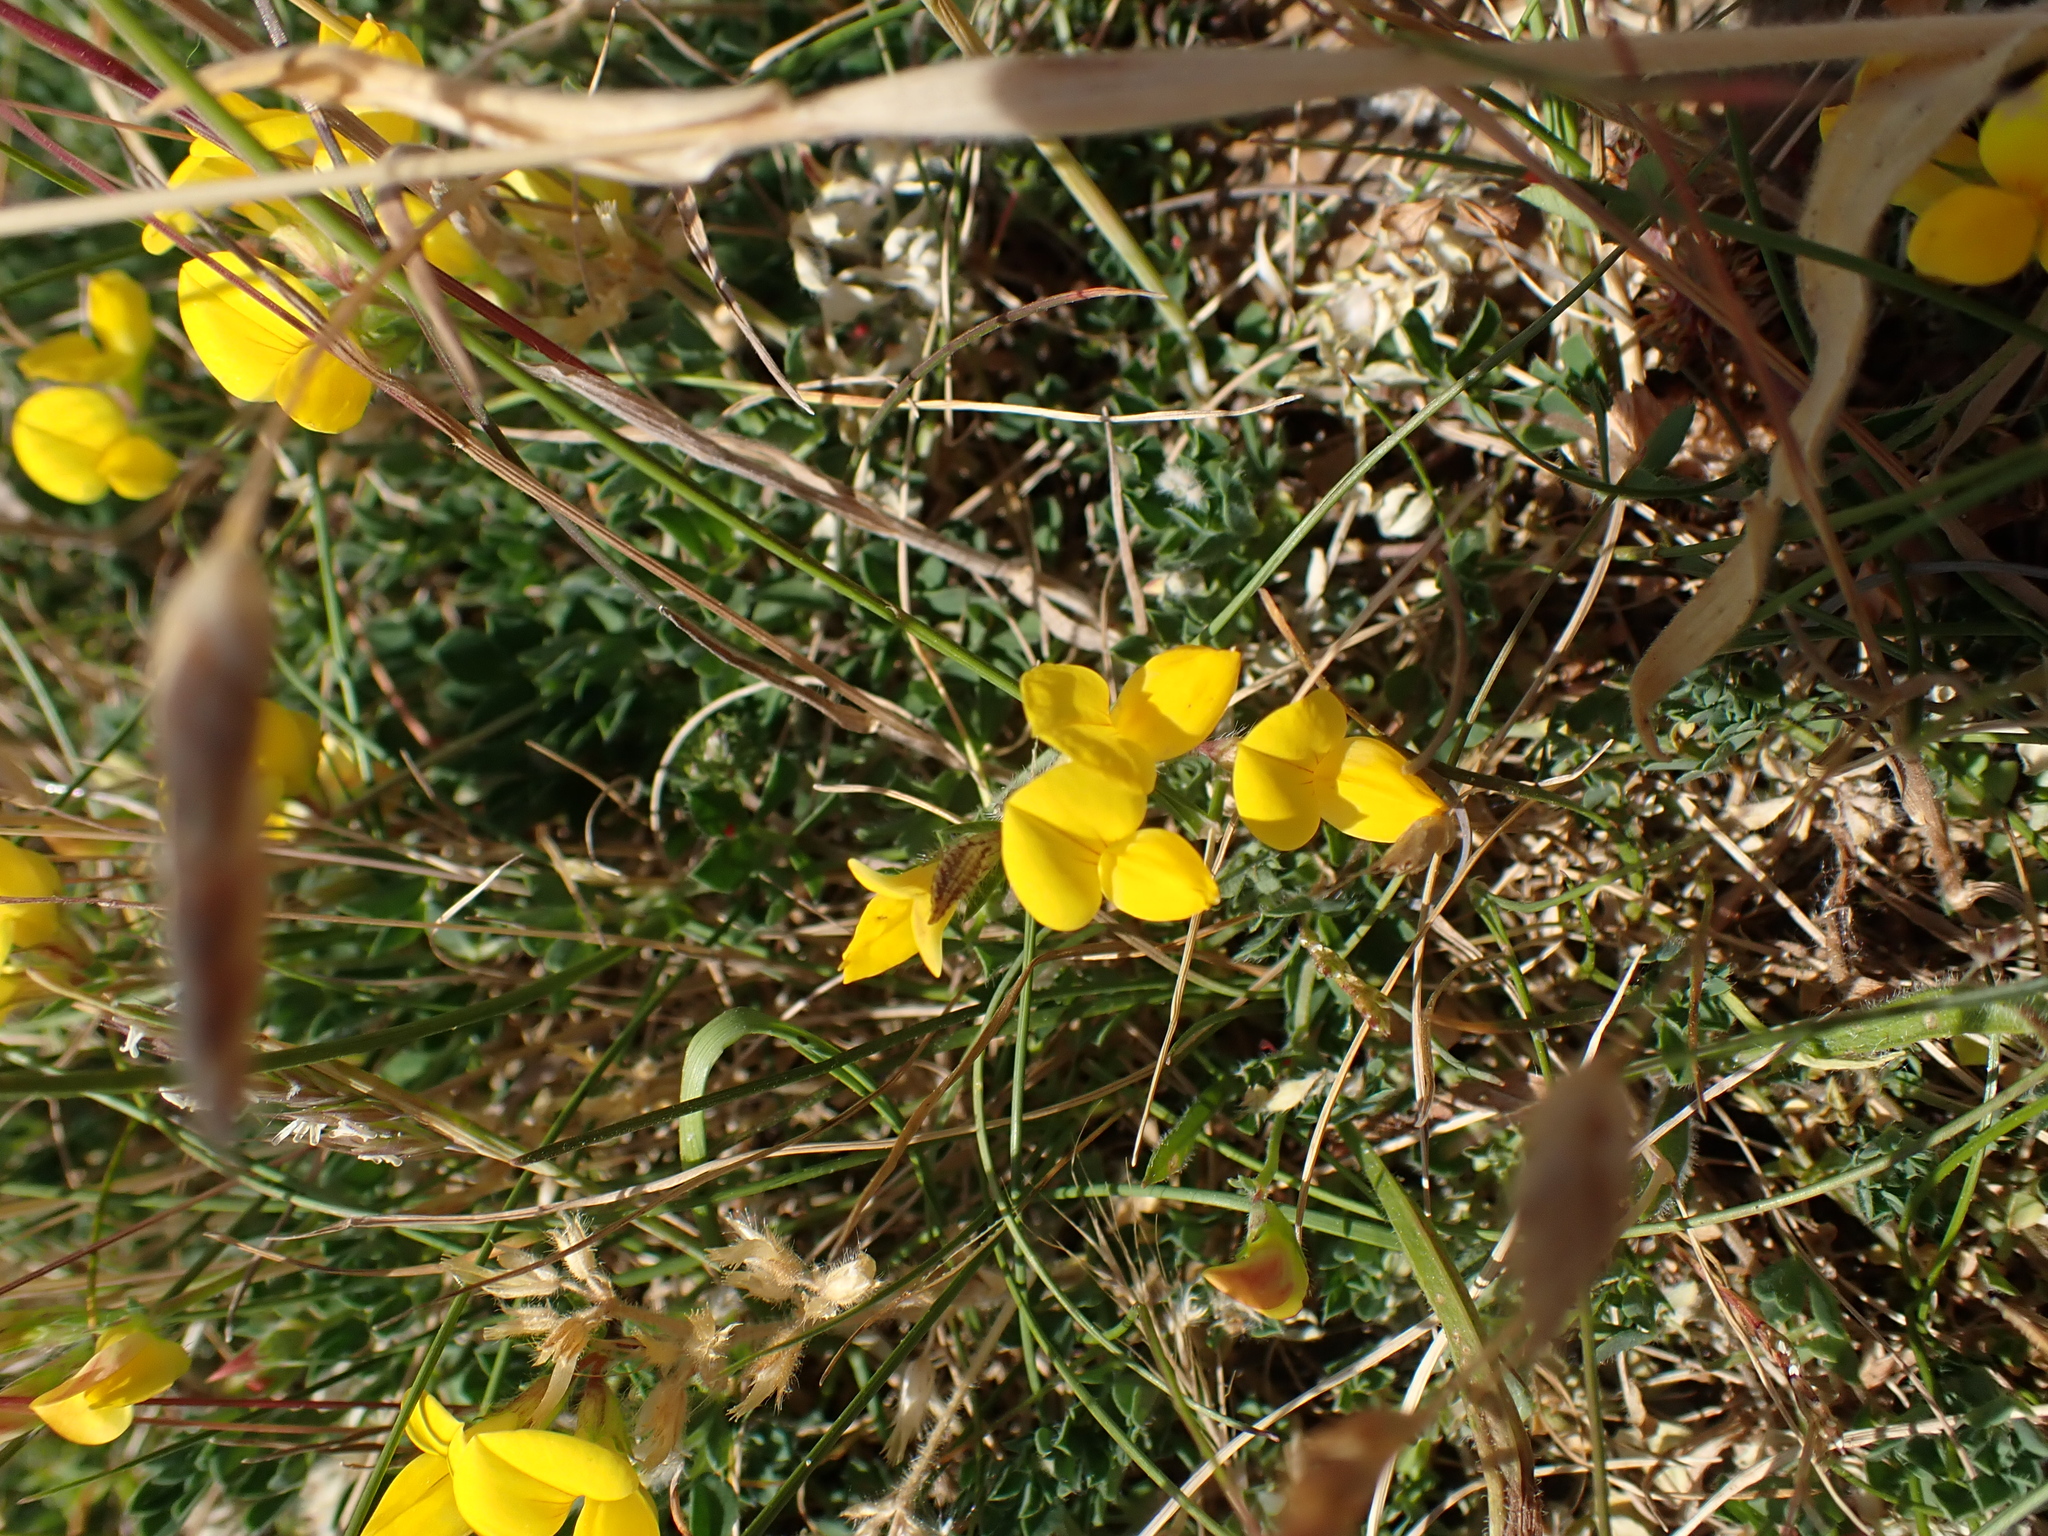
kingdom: Plantae
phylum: Tracheophyta
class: Magnoliopsida
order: Fabales
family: Fabaceae
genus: Lotus
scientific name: Lotus corniculatus
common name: Common bird's-foot-trefoil
